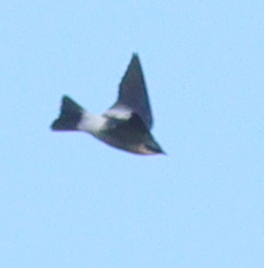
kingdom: Animalia
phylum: Chordata
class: Aves
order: Passeriformes
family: Hirundinidae
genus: Tachycineta
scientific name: Tachycineta albiventer
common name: White-winged swallow
